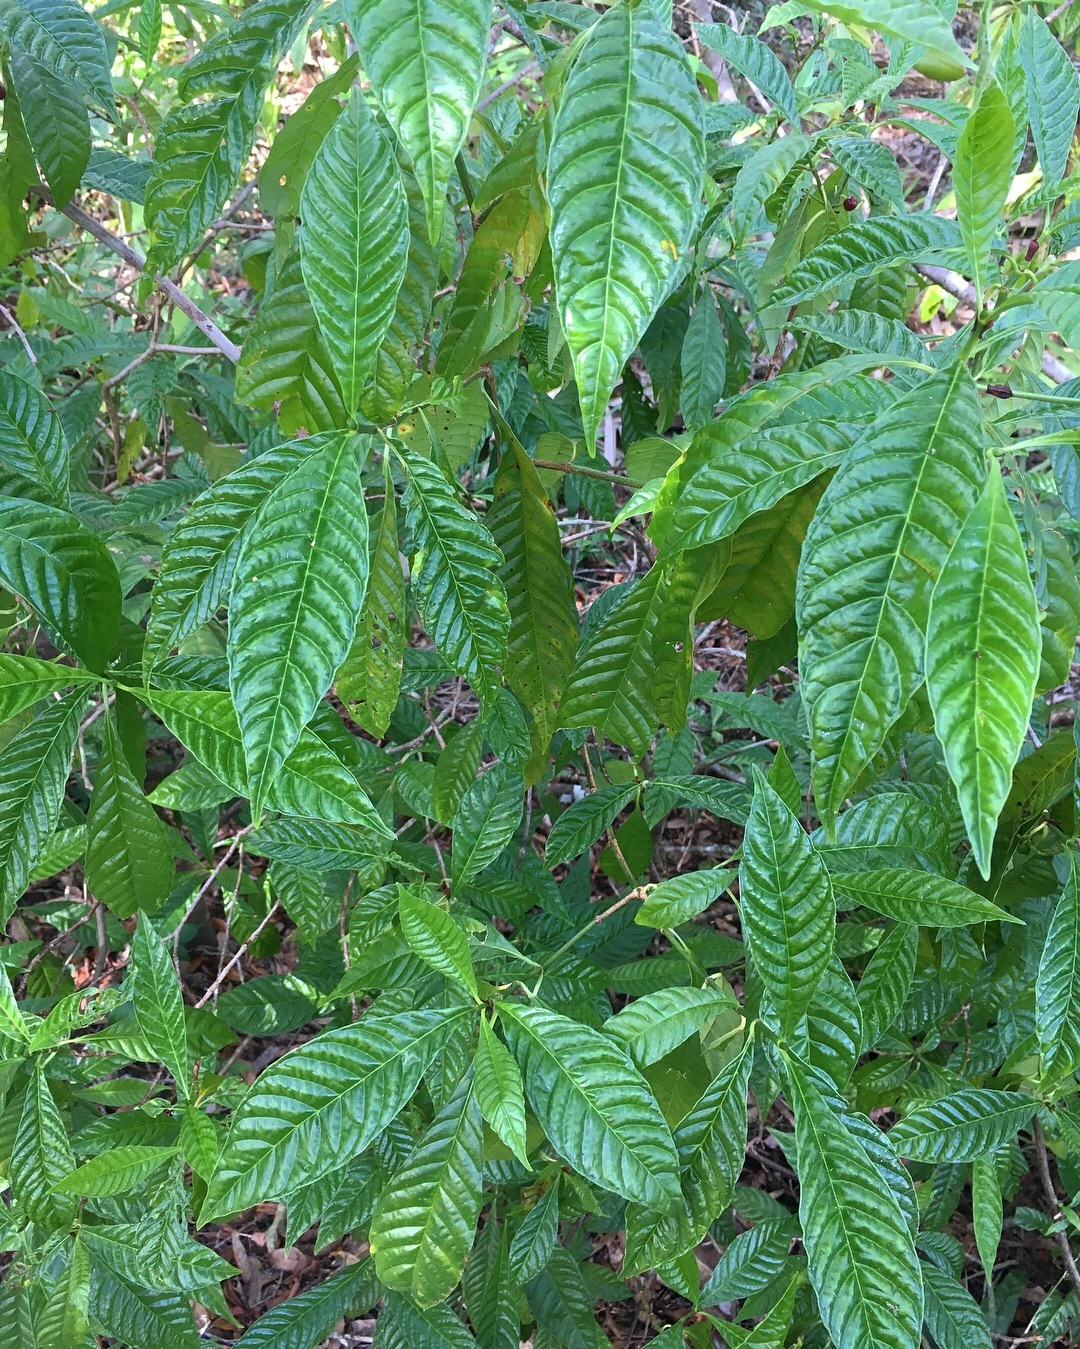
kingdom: Plantae
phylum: Tracheophyta
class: Magnoliopsida
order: Gentianales
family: Rubiaceae
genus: Psychotria
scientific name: Psychotria nervosa
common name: Bastard cankerberry
